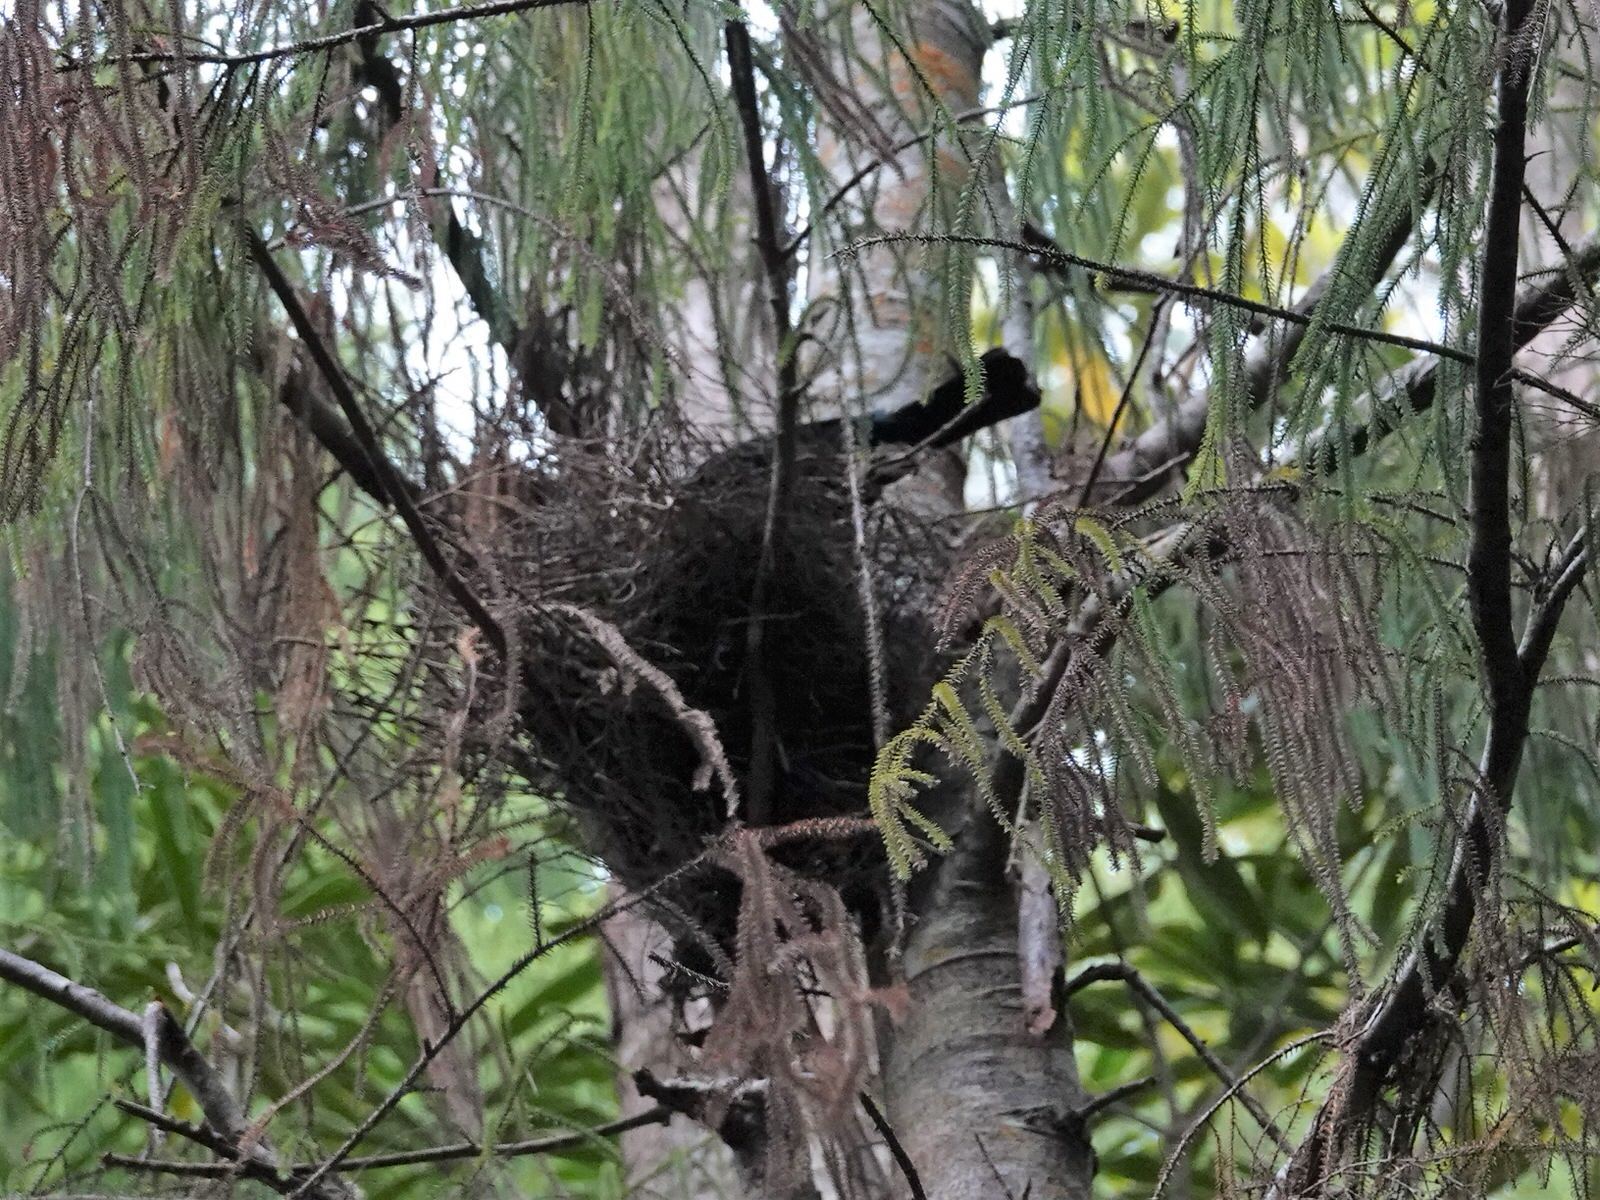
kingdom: Animalia
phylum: Chordata
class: Aves
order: Passeriformes
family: Meliphagidae
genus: Prosthemadera
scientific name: Prosthemadera novaeseelandiae
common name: Tui
